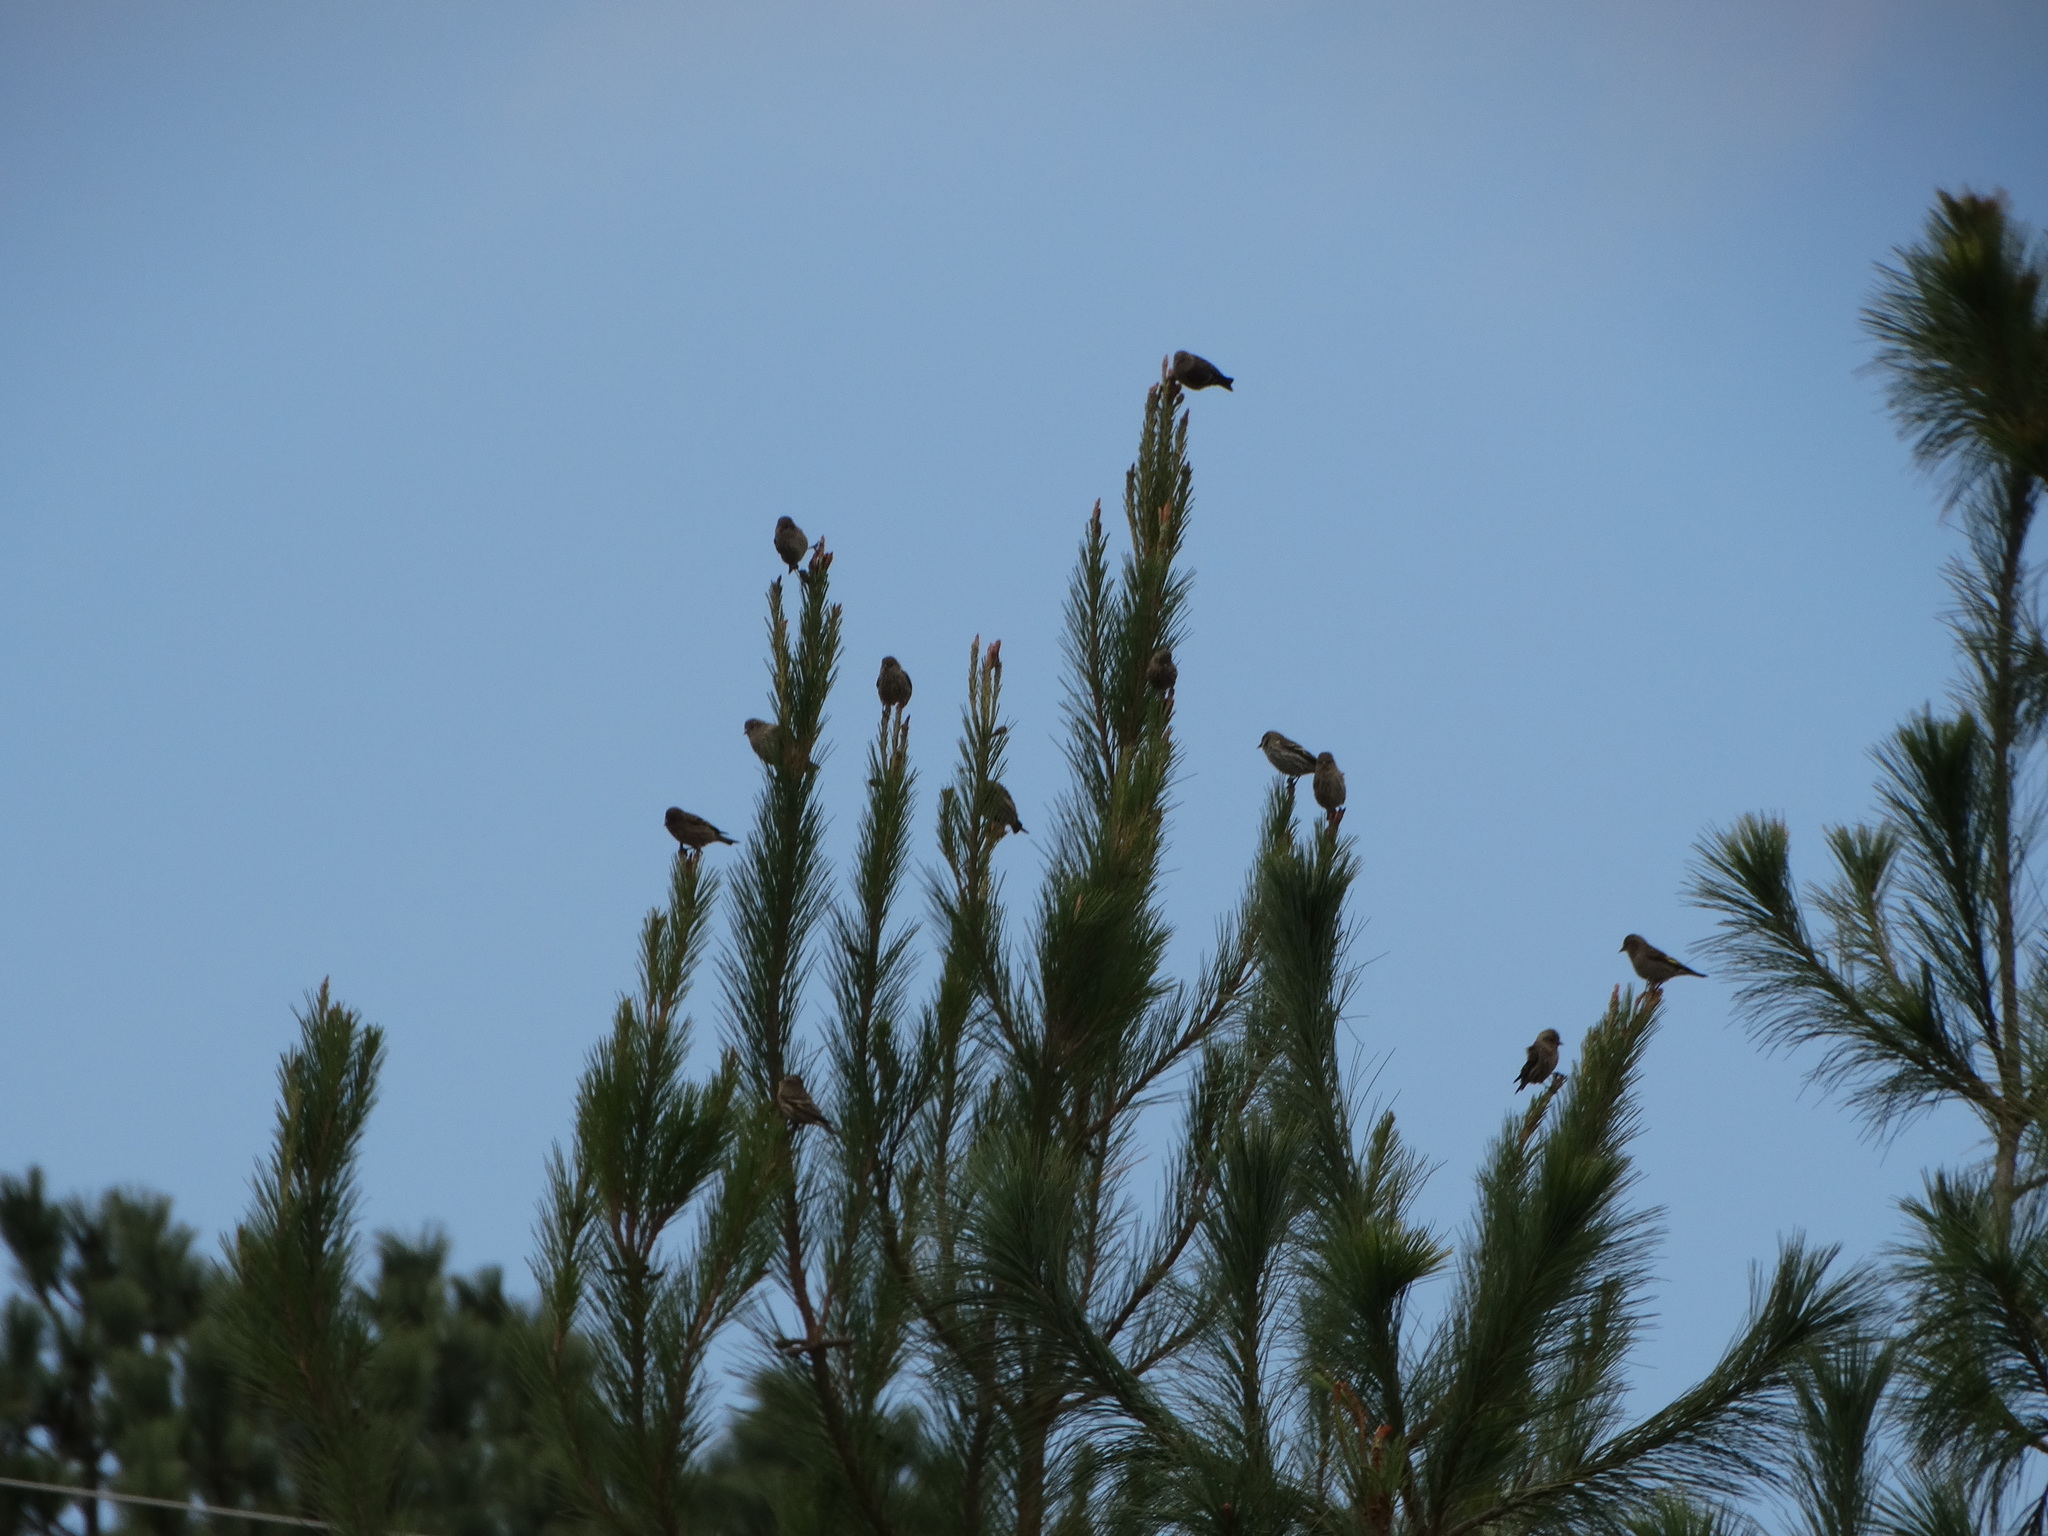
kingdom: Animalia
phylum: Chordata
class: Aves
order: Passeriformes
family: Fringillidae
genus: Spinus
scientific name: Spinus pinus
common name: Pine siskin
